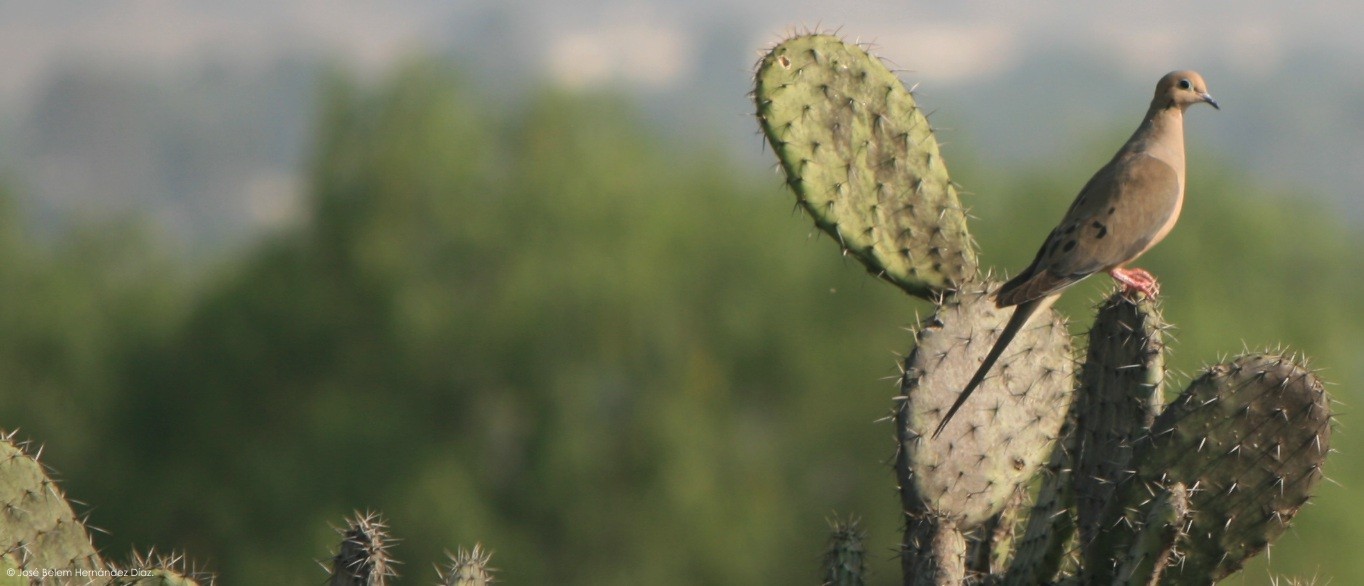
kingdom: Animalia
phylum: Chordata
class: Aves
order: Columbiformes
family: Columbidae
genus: Zenaida
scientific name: Zenaida macroura
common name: Mourning dove
